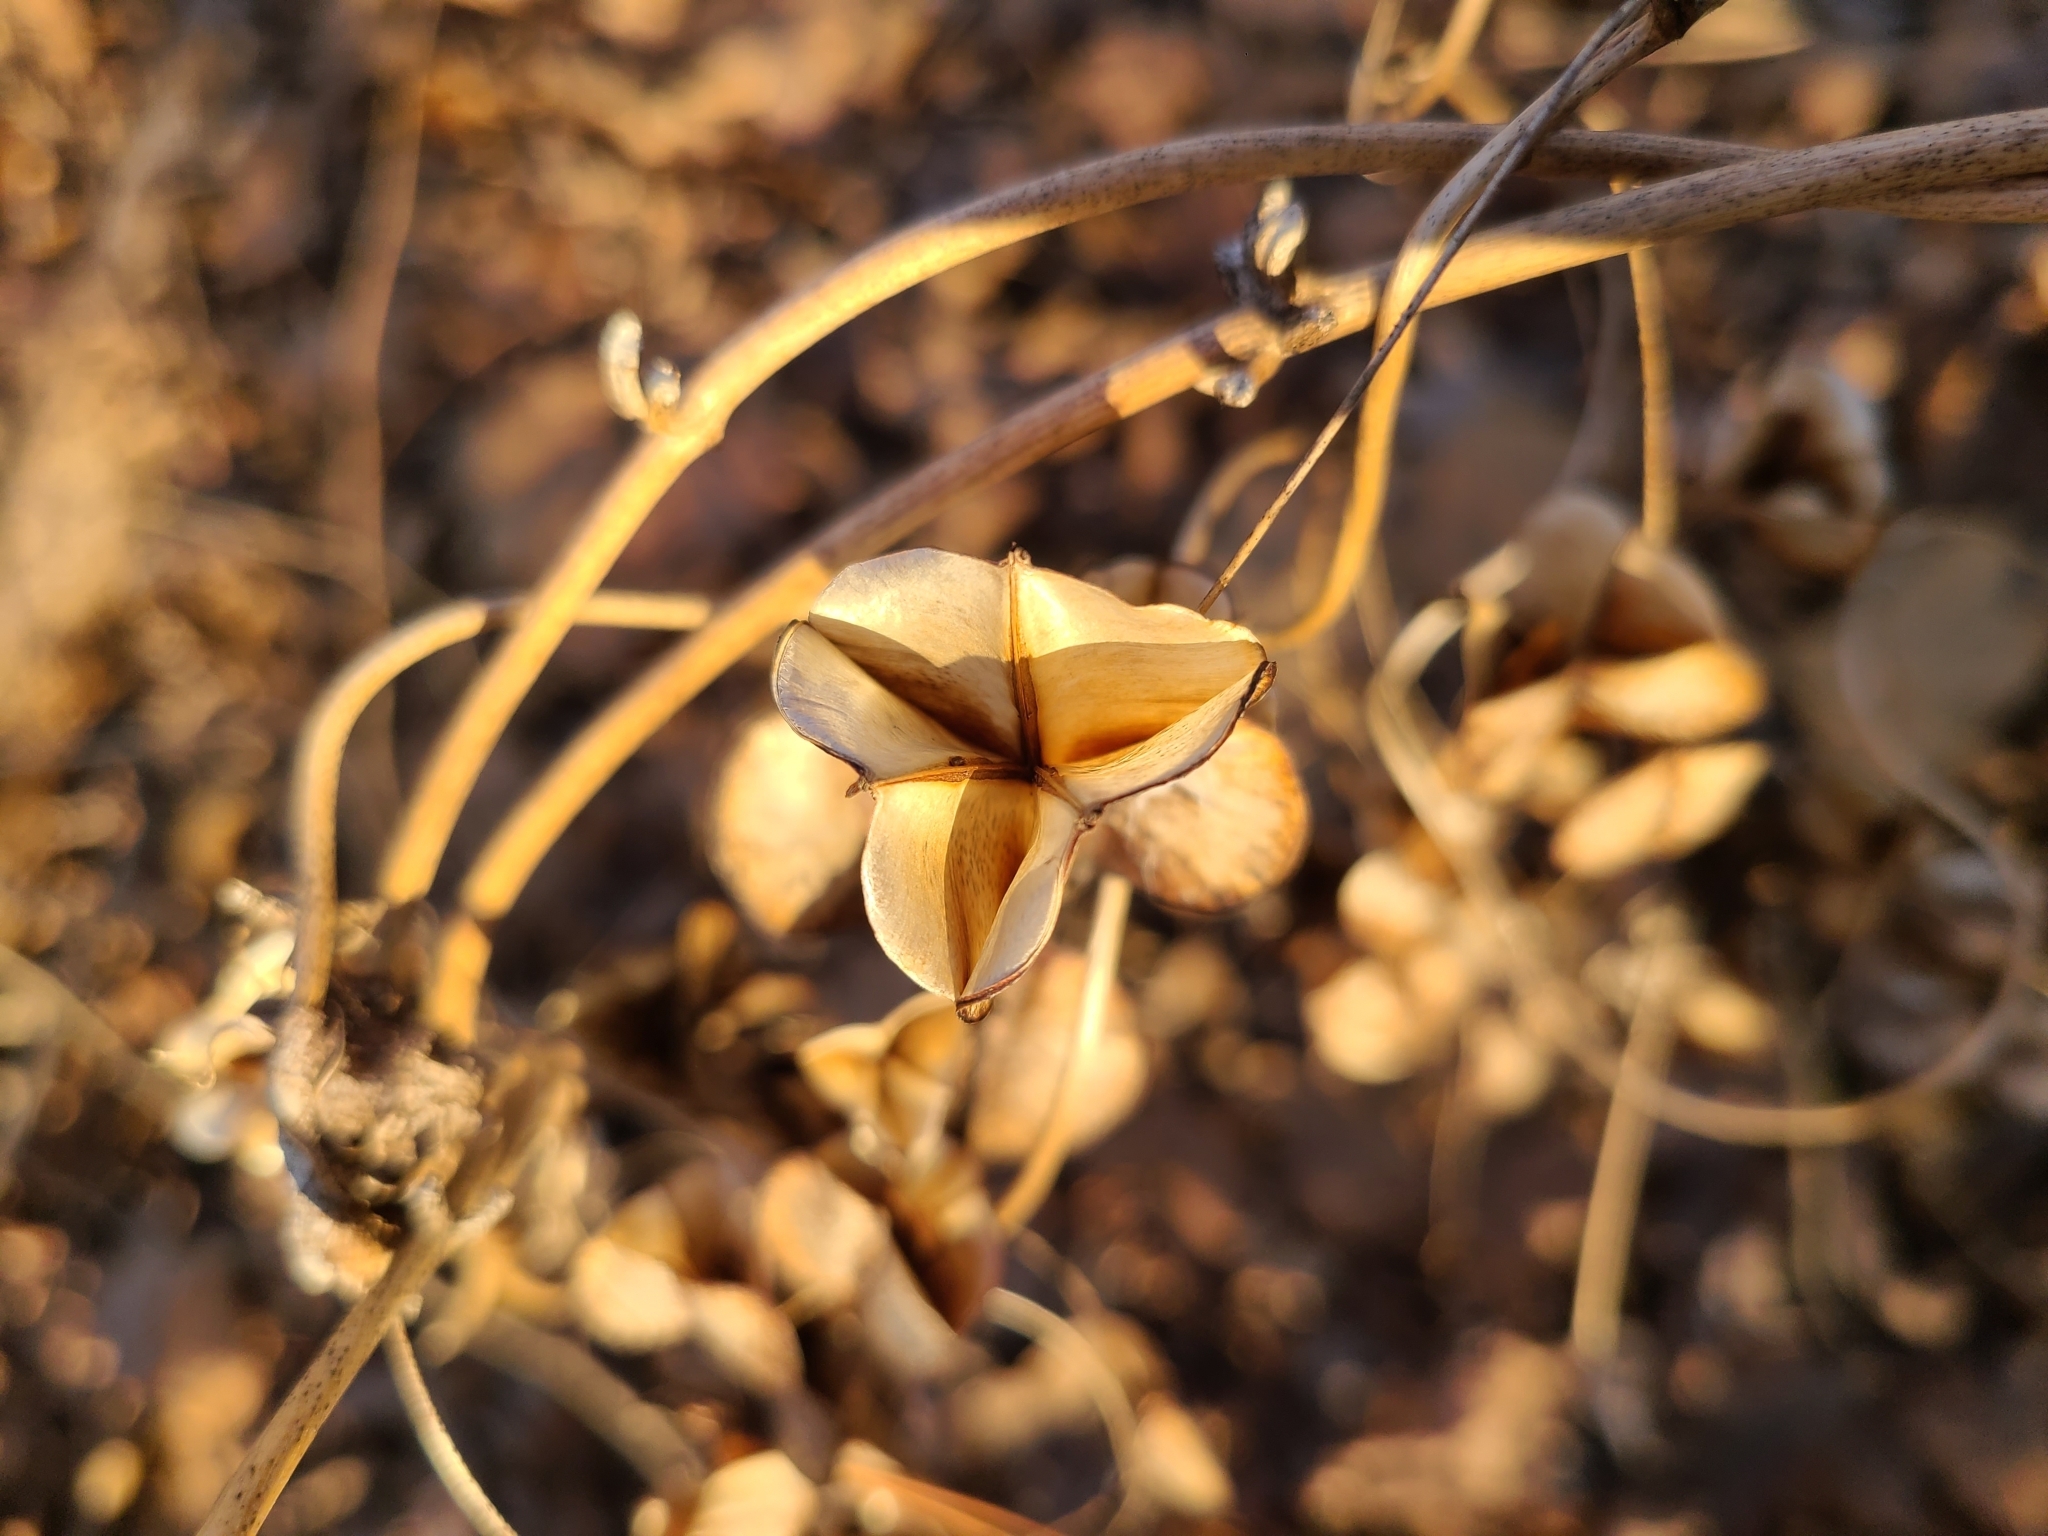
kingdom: Plantae
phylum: Tracheophyta
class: Liliopsida
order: Dioscoreales
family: Dioscoreaceae
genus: Dioscorea
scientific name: Dioscorea villosa
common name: Wild yam
